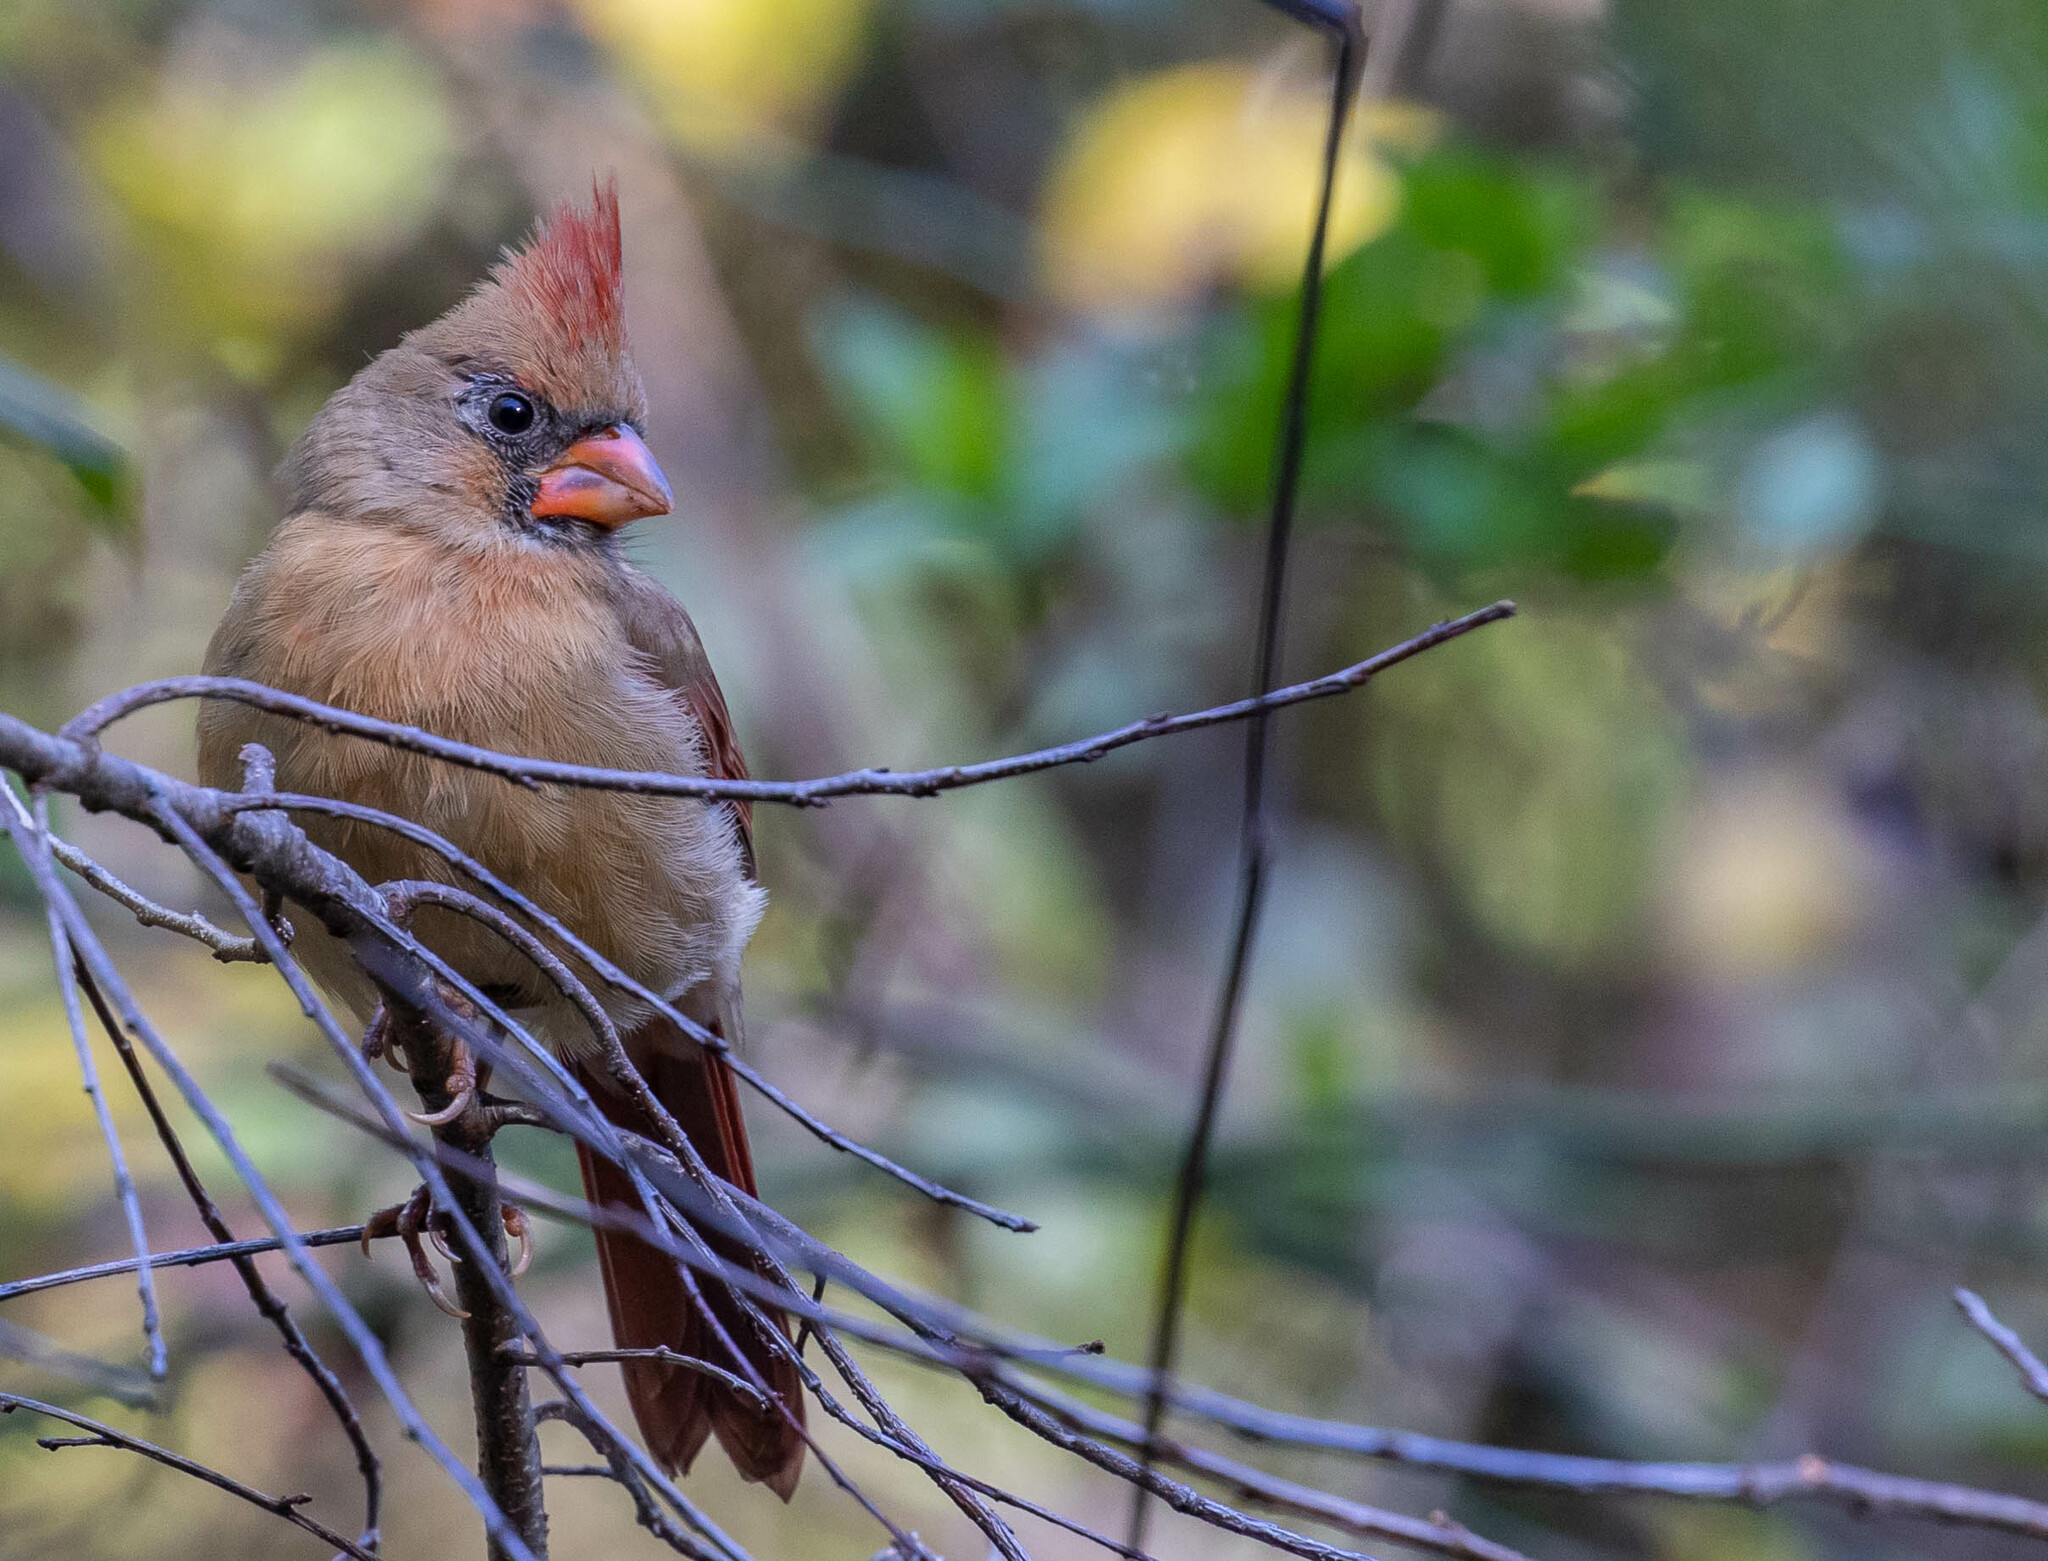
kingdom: Animalia
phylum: Chordata
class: Aves
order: Passeriformes
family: Cardinalidae
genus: Cardinalis
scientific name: Cardinalis cardinalis
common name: Northern cardinal
